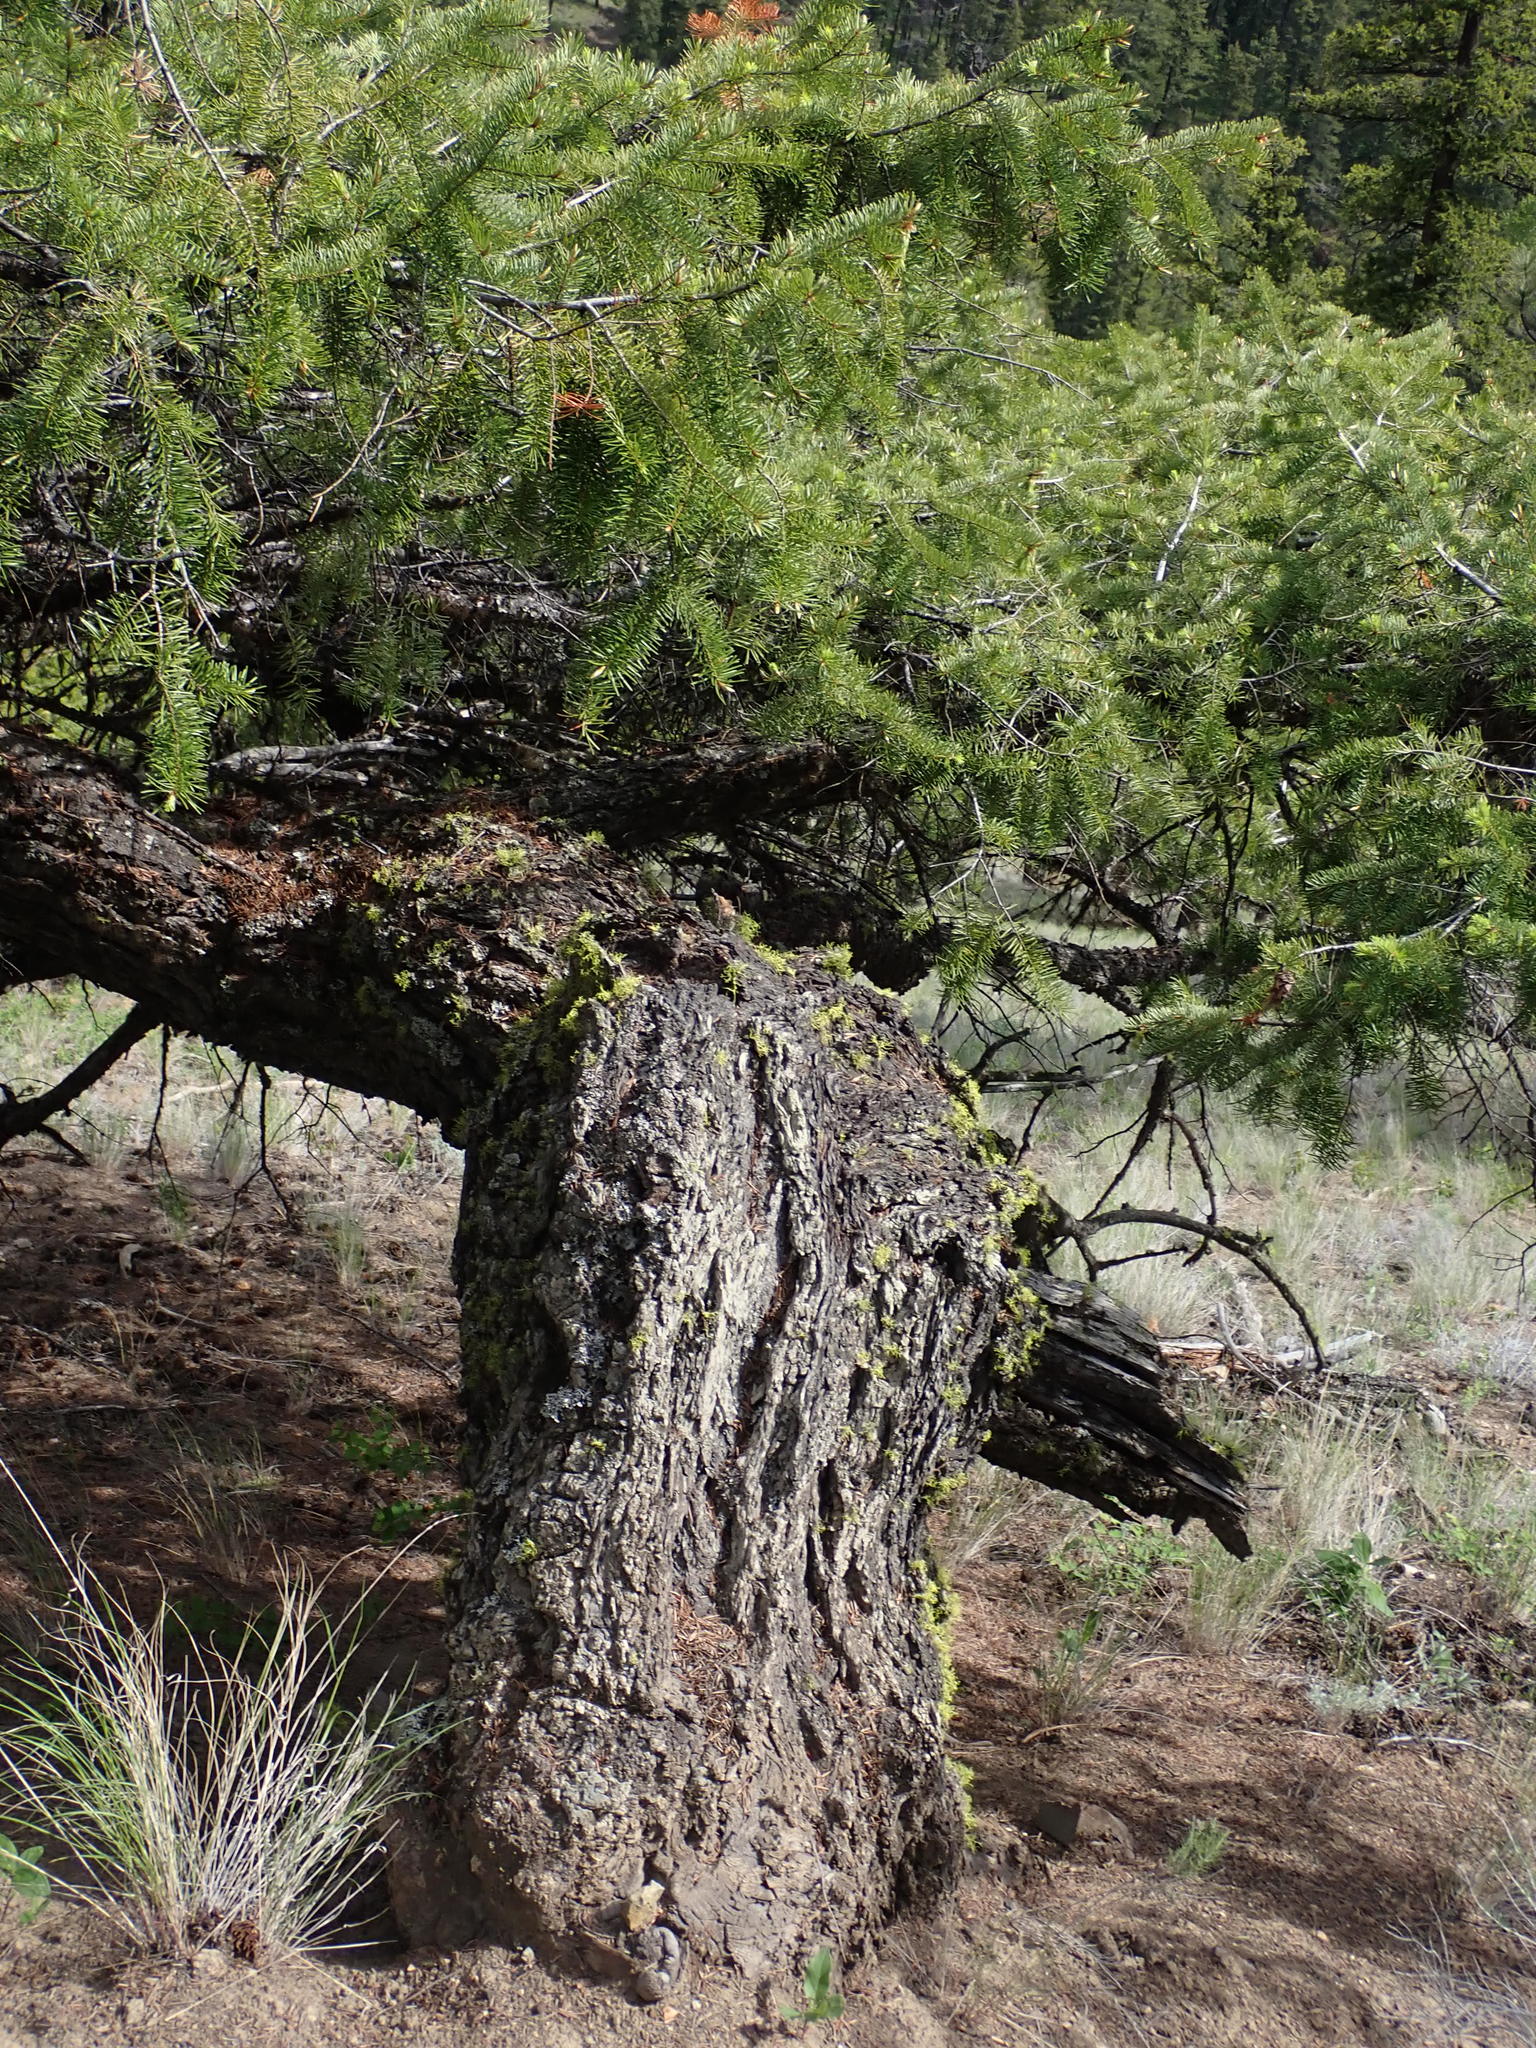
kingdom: Plantae
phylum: Tracheophyta
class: Pinopsida
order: Pinales
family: Pinaceae
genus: Pseudotsuga
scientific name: Pseudotsuga menziesii
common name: Douglas fir
